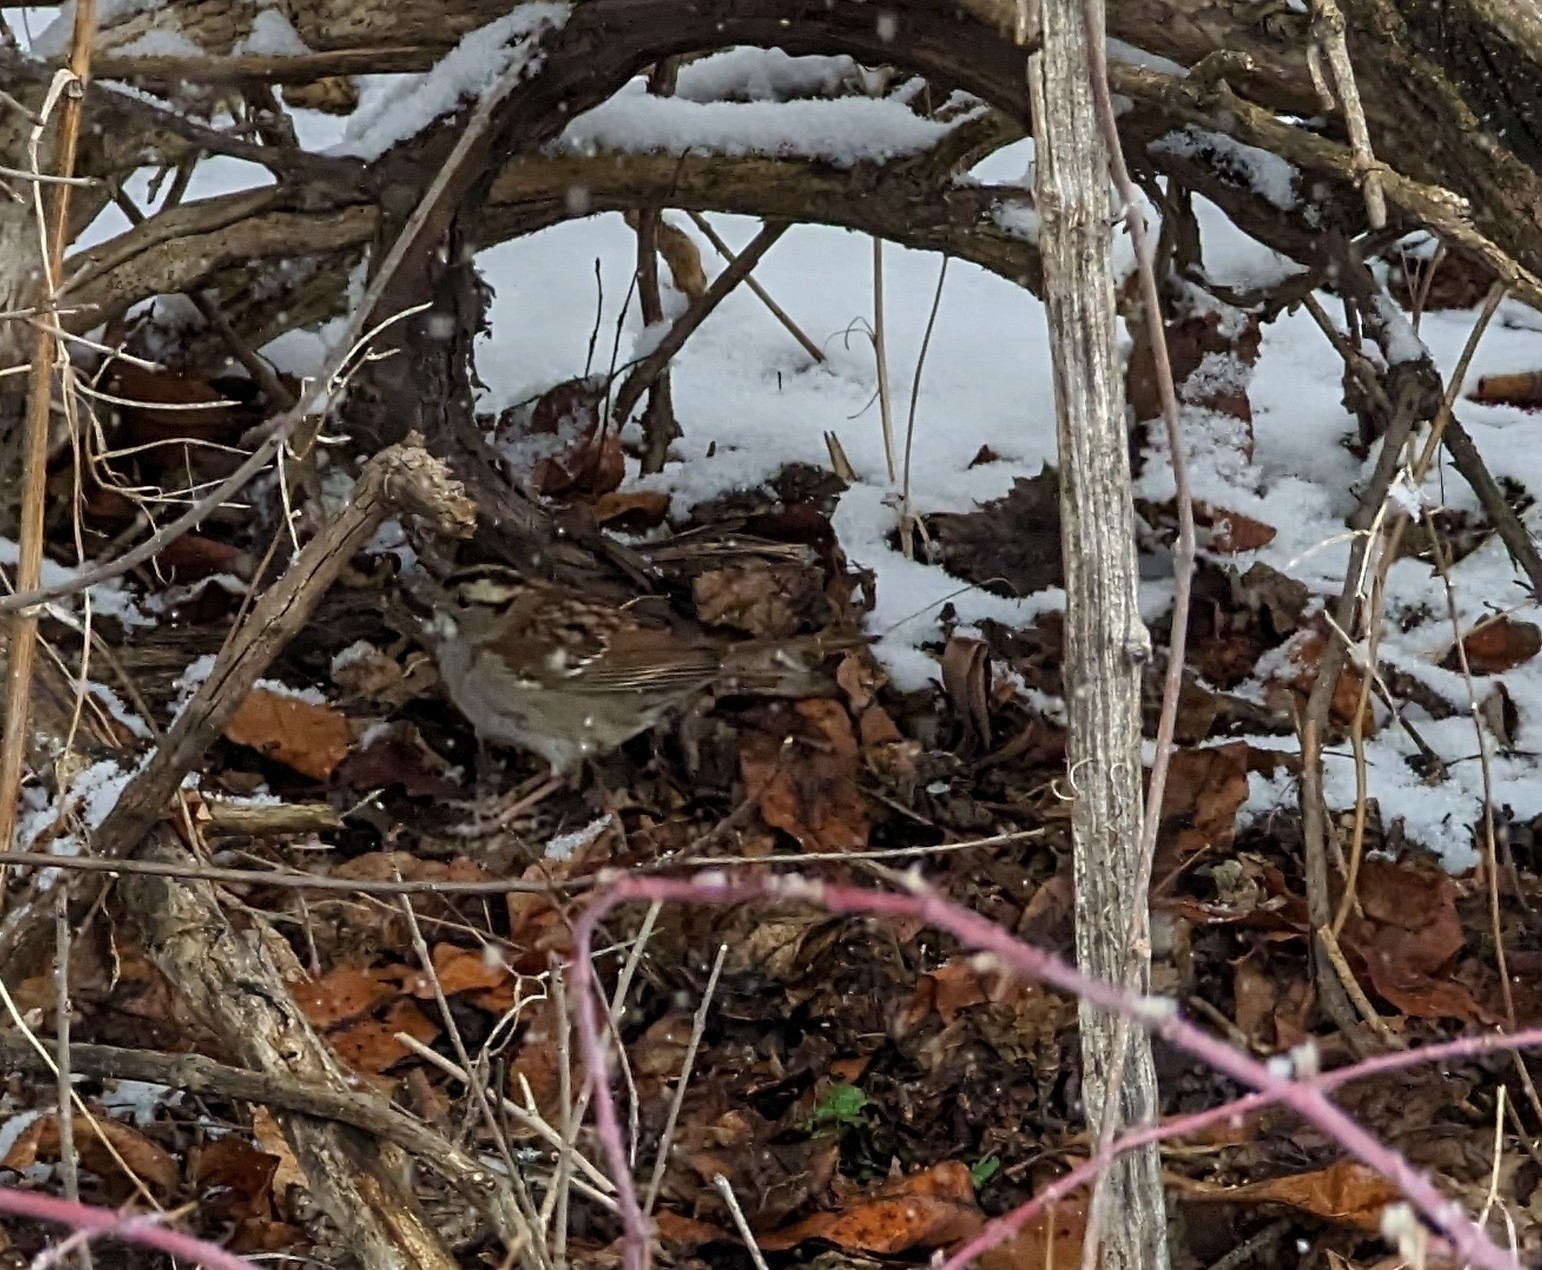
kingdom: Animalia
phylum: Chordata
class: Aves
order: Passeriformes
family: Passerellidae
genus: Zonotrichia
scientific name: Zonotrichia albicollis
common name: White-throated sparrow
